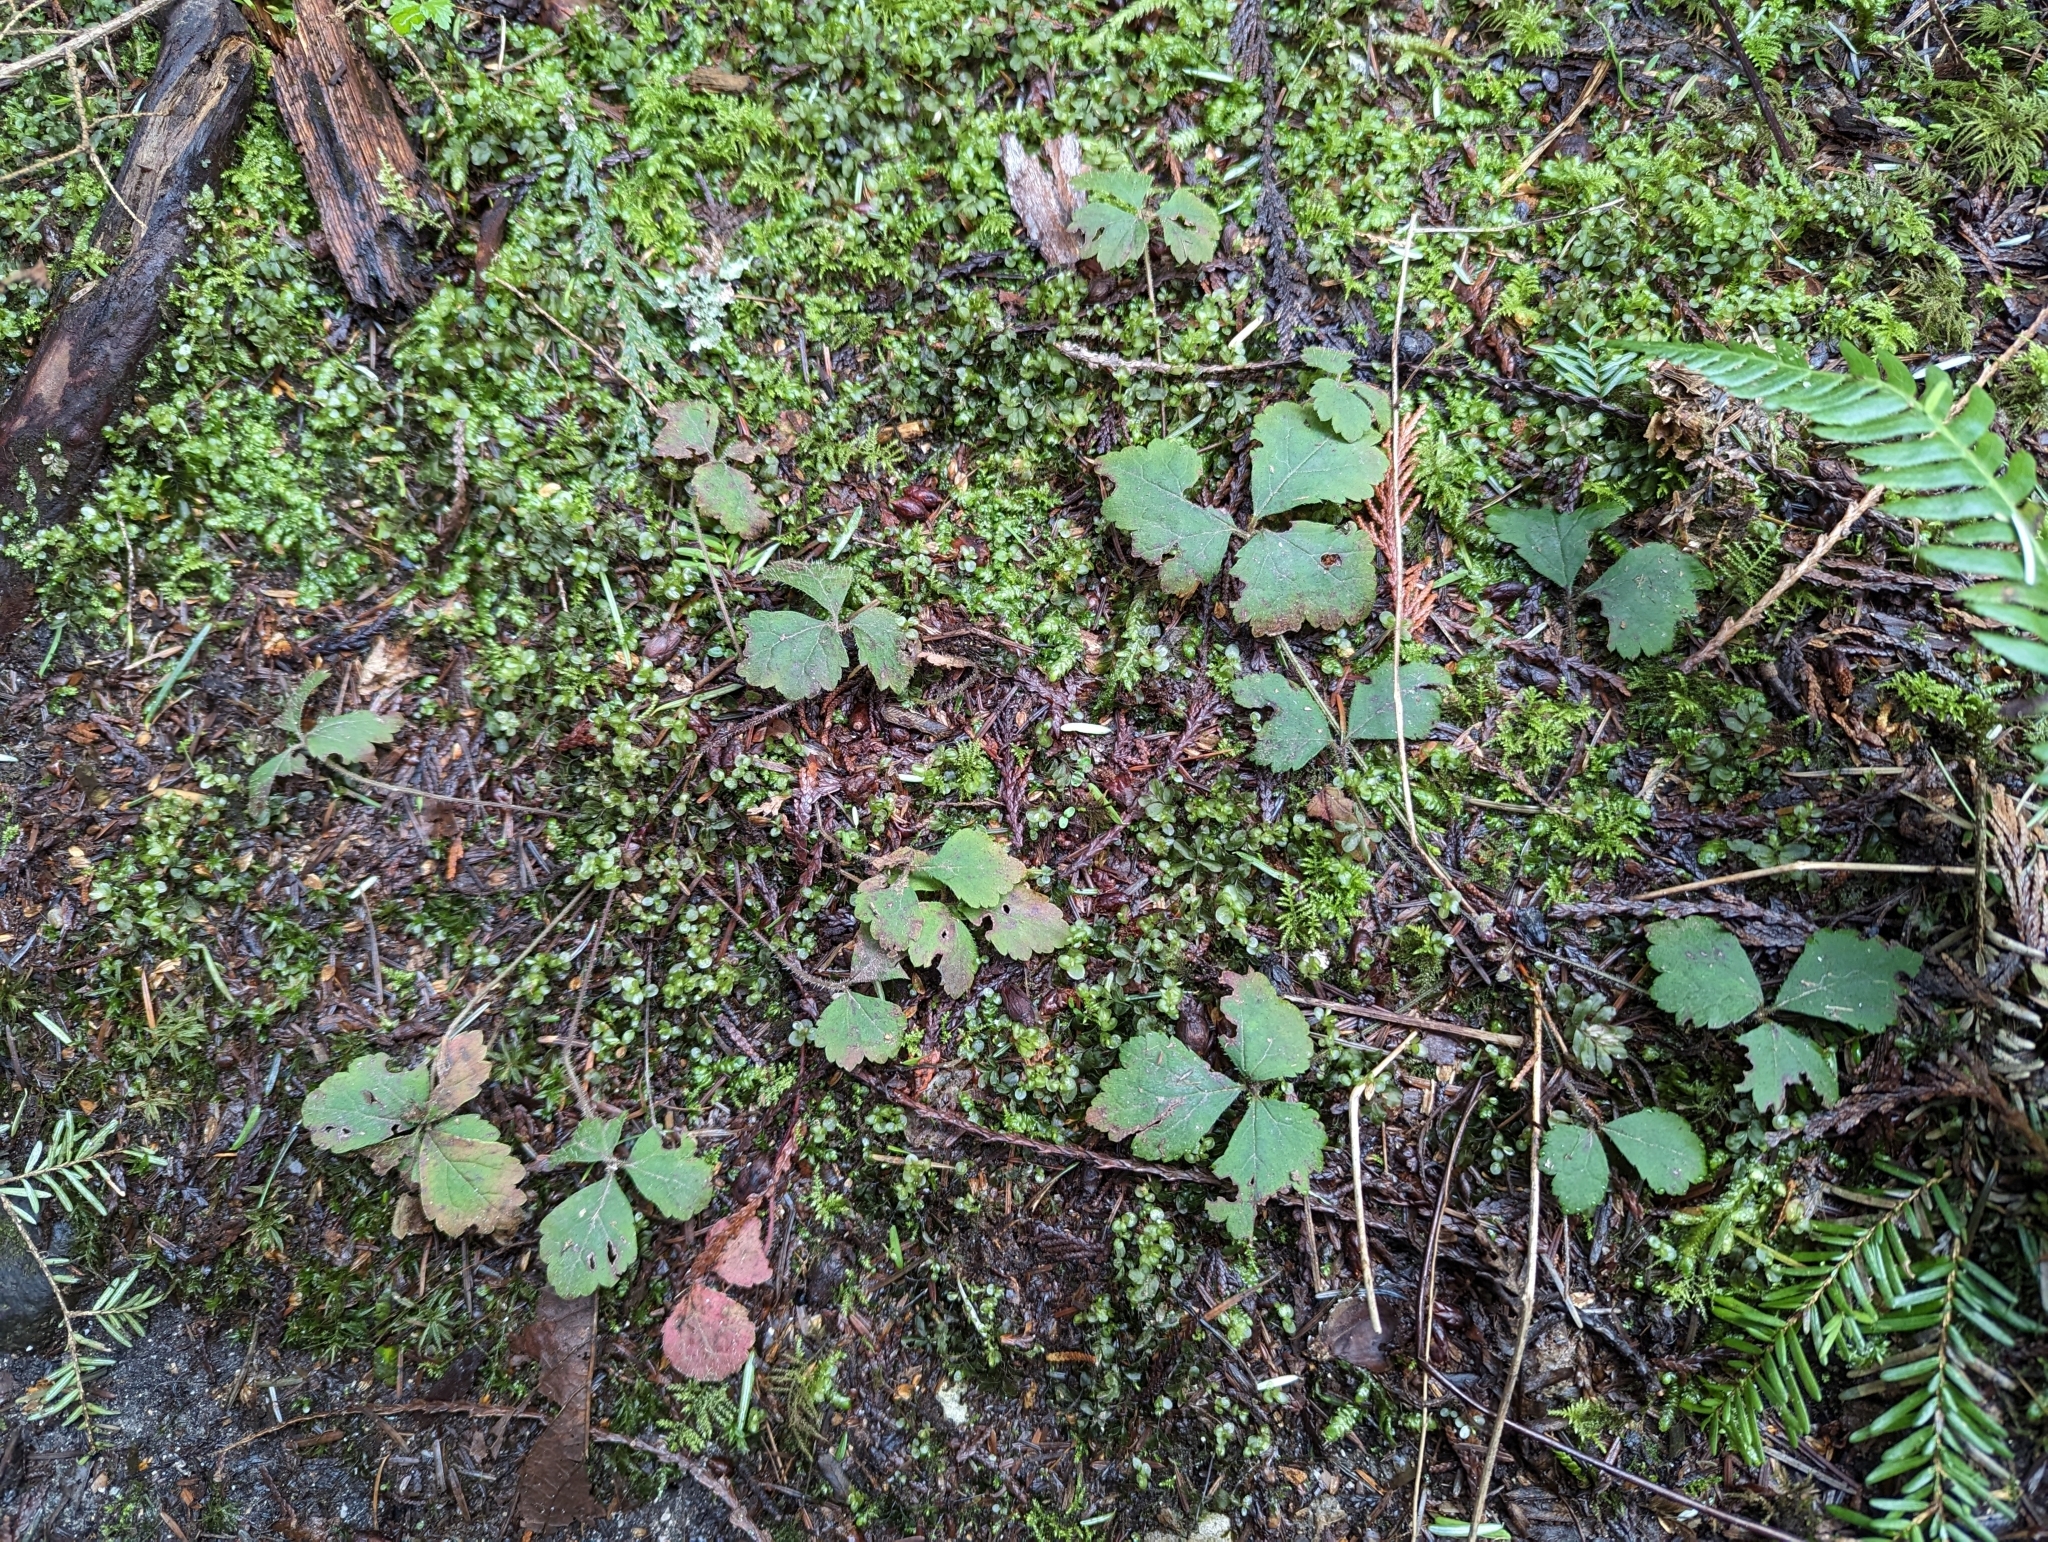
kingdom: Plantae
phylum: Tracheophyta
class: Magnoliopsida
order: Saxifragales
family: Saxifragaceae
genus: Tiarella
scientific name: Tiarella trifoliata
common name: Sugar-scoop
